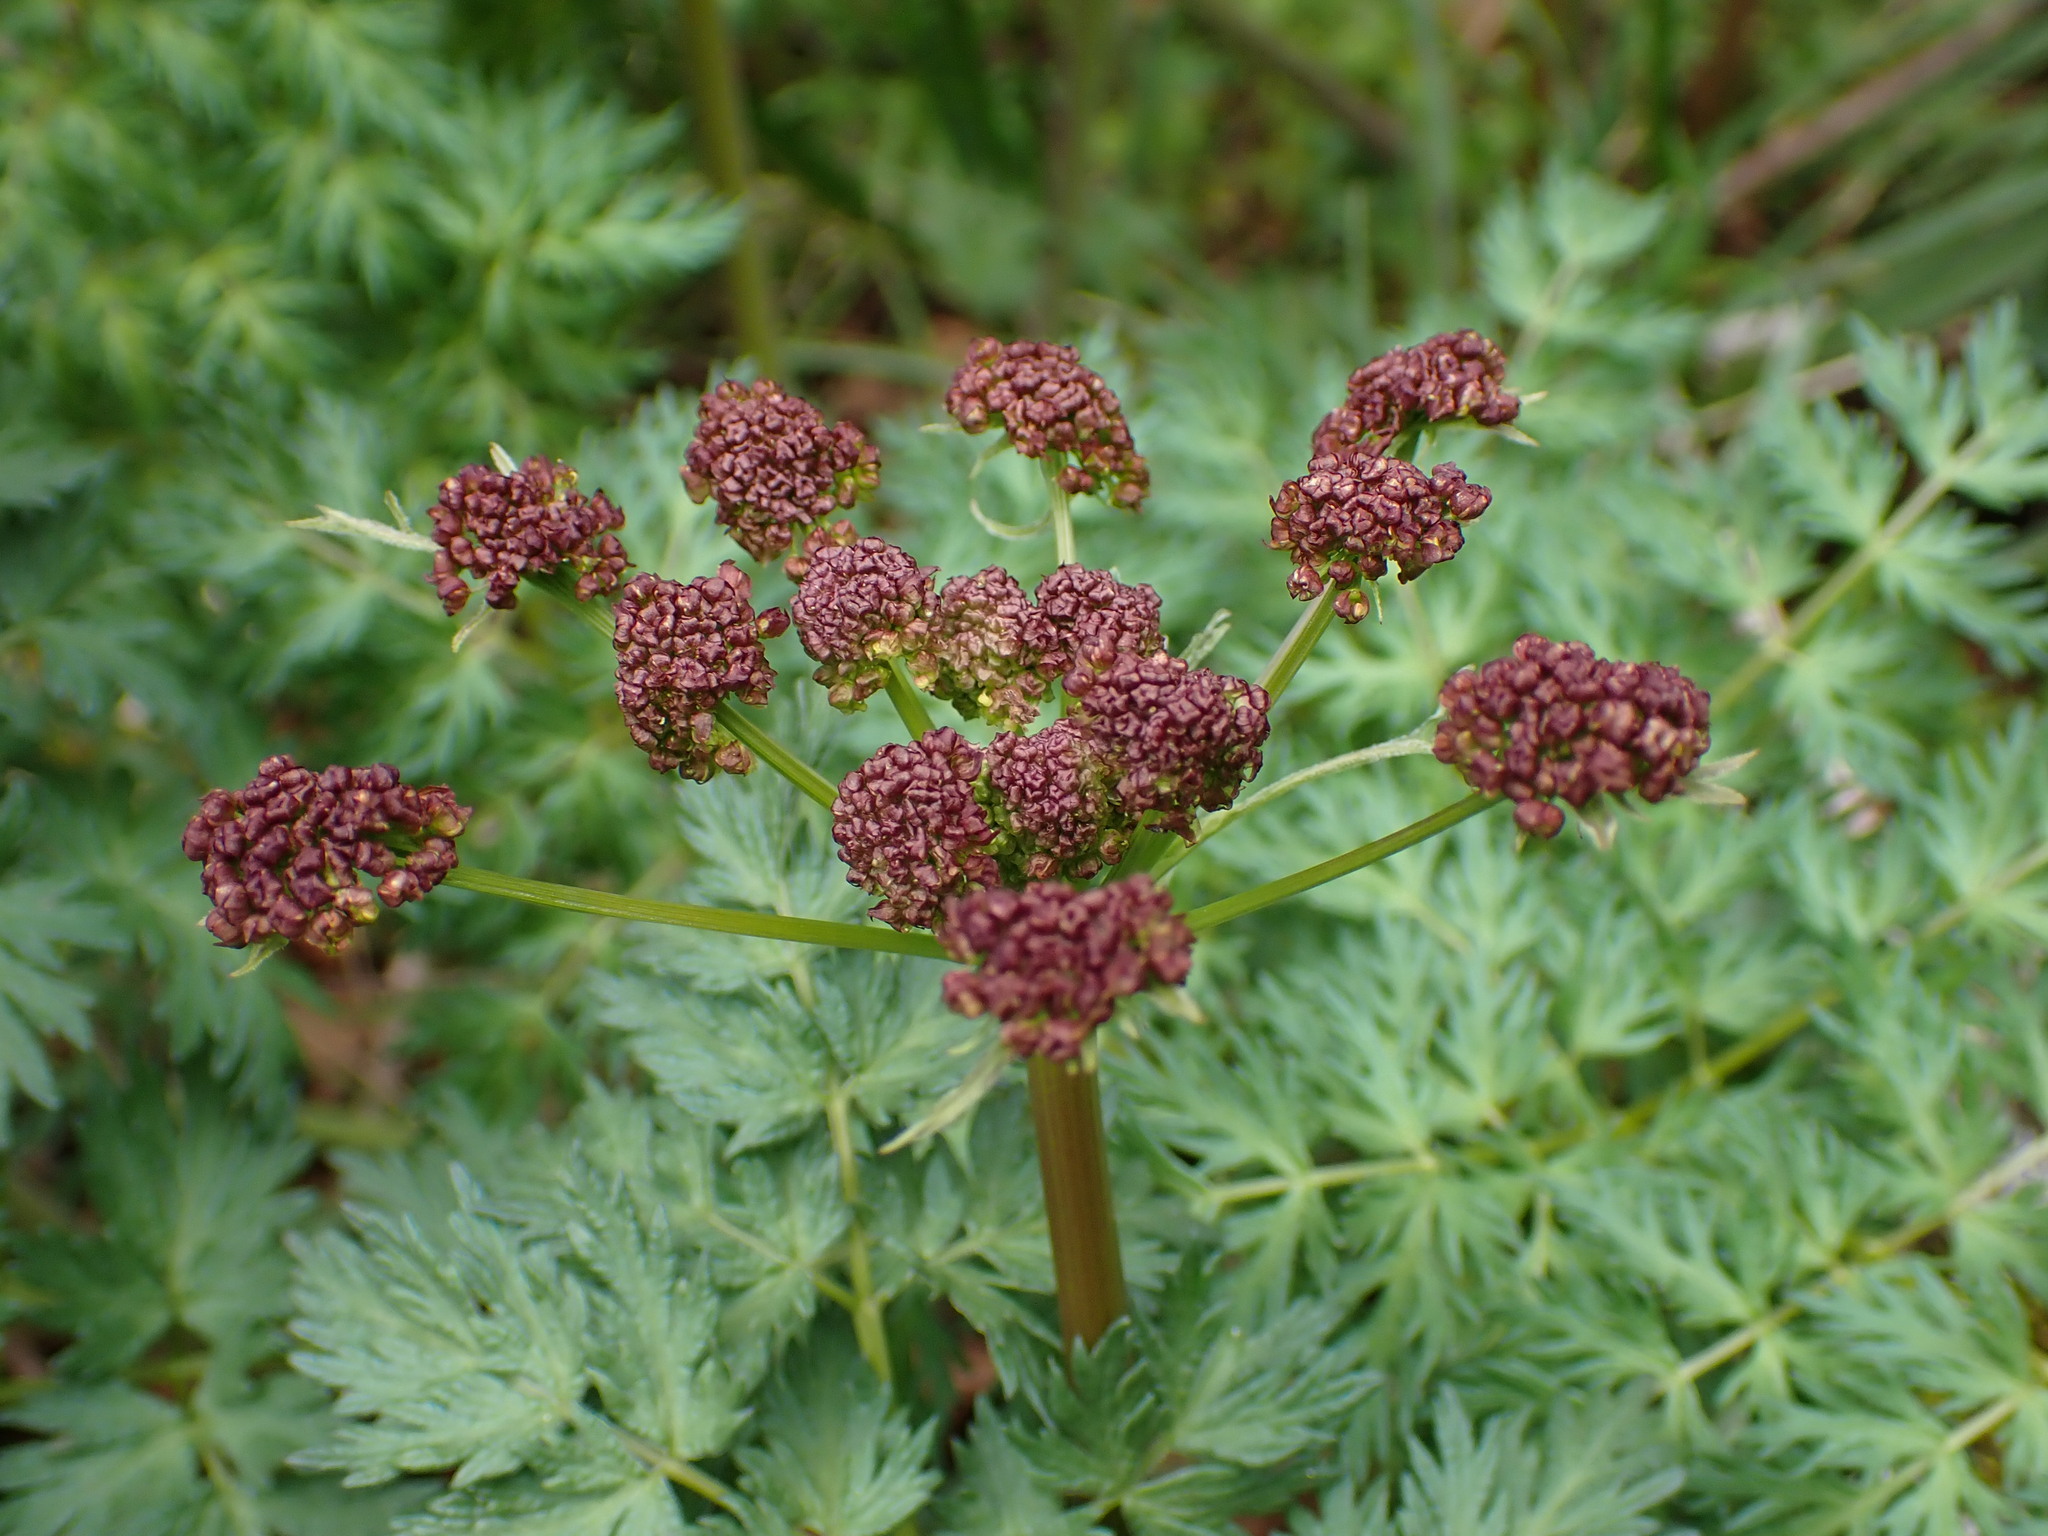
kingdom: Plantae
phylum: Tracheophyta
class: Magnoliopsida
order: Apiales
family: Apiaceae
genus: Lomatium
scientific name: Lomatium dissectum
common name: Lomatium
